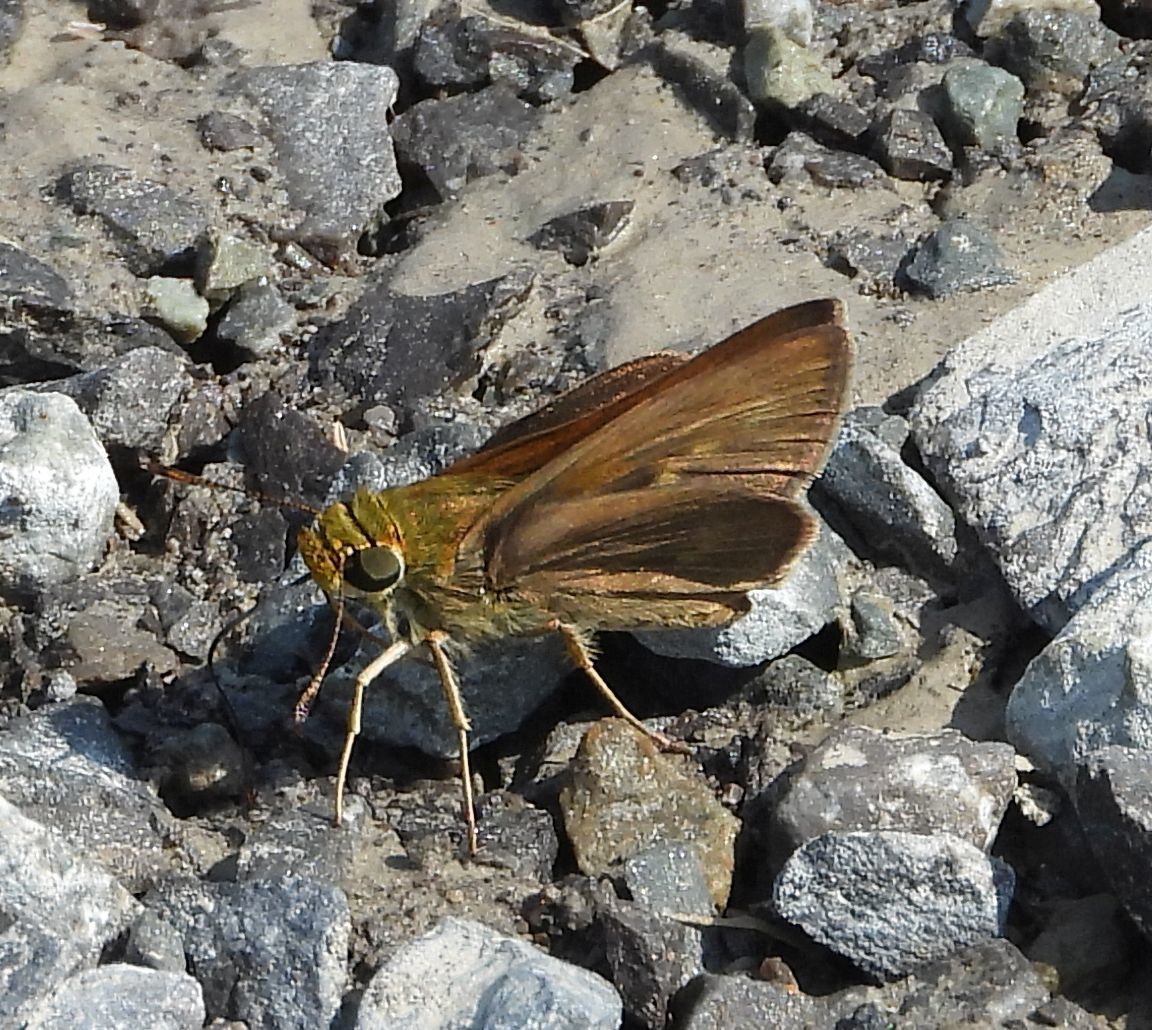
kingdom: Animalia
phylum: Arthropoda
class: Insecta
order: Lepidoptera
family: Hesperiidae
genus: Euphyes
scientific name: Euphyes vestris
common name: Dun skipper
